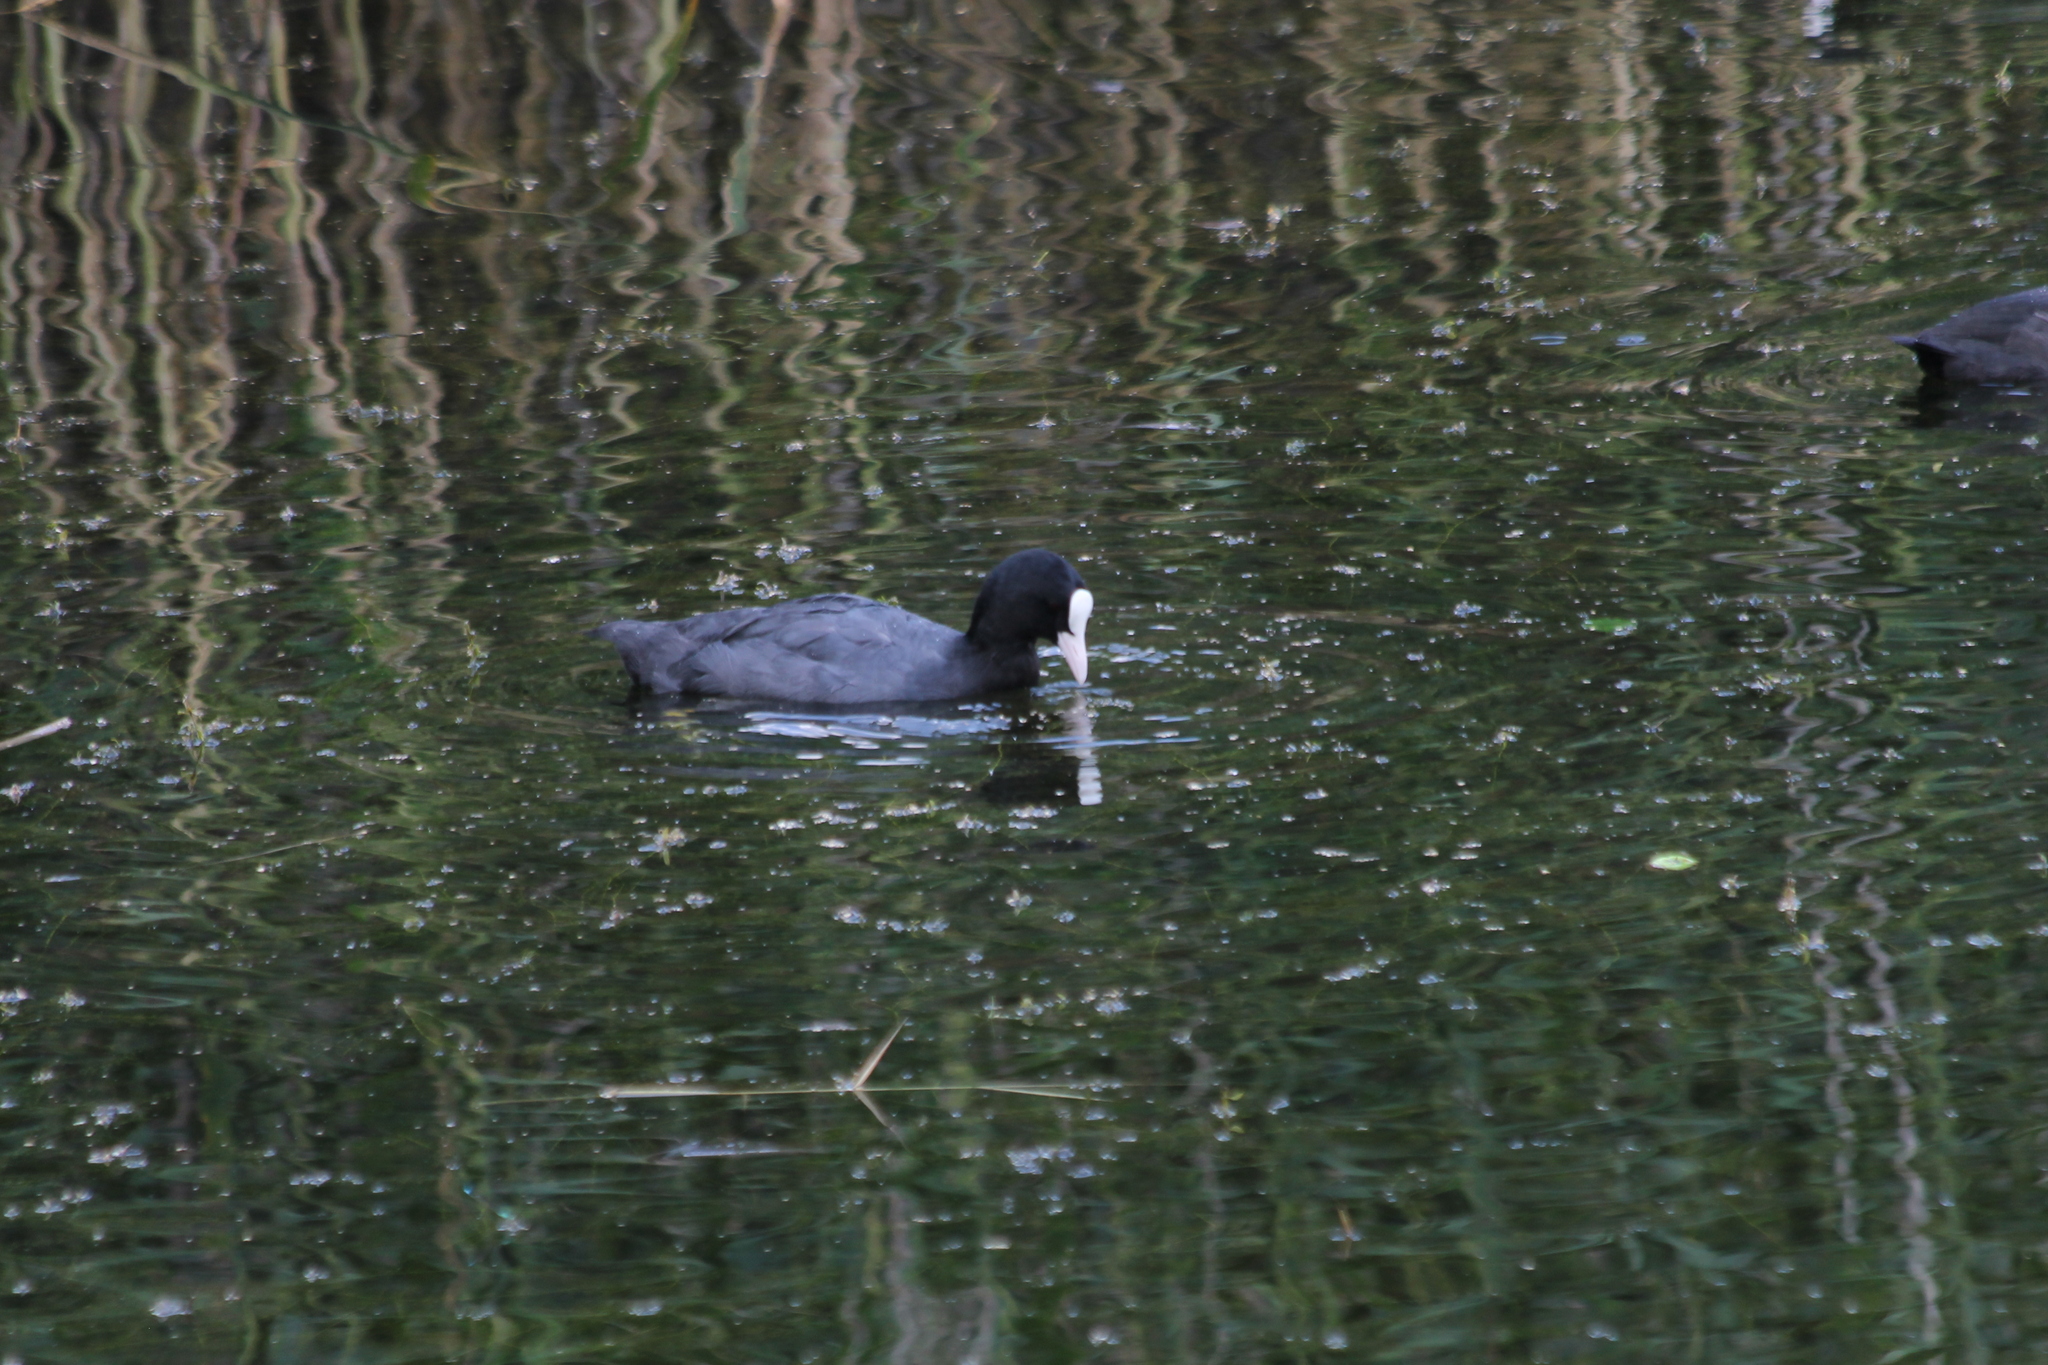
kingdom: Animalia
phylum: Chordata
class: Aves
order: Gruiformes
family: Rallidae
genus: Fulica
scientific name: Fulica atra
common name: Eurasian coot
